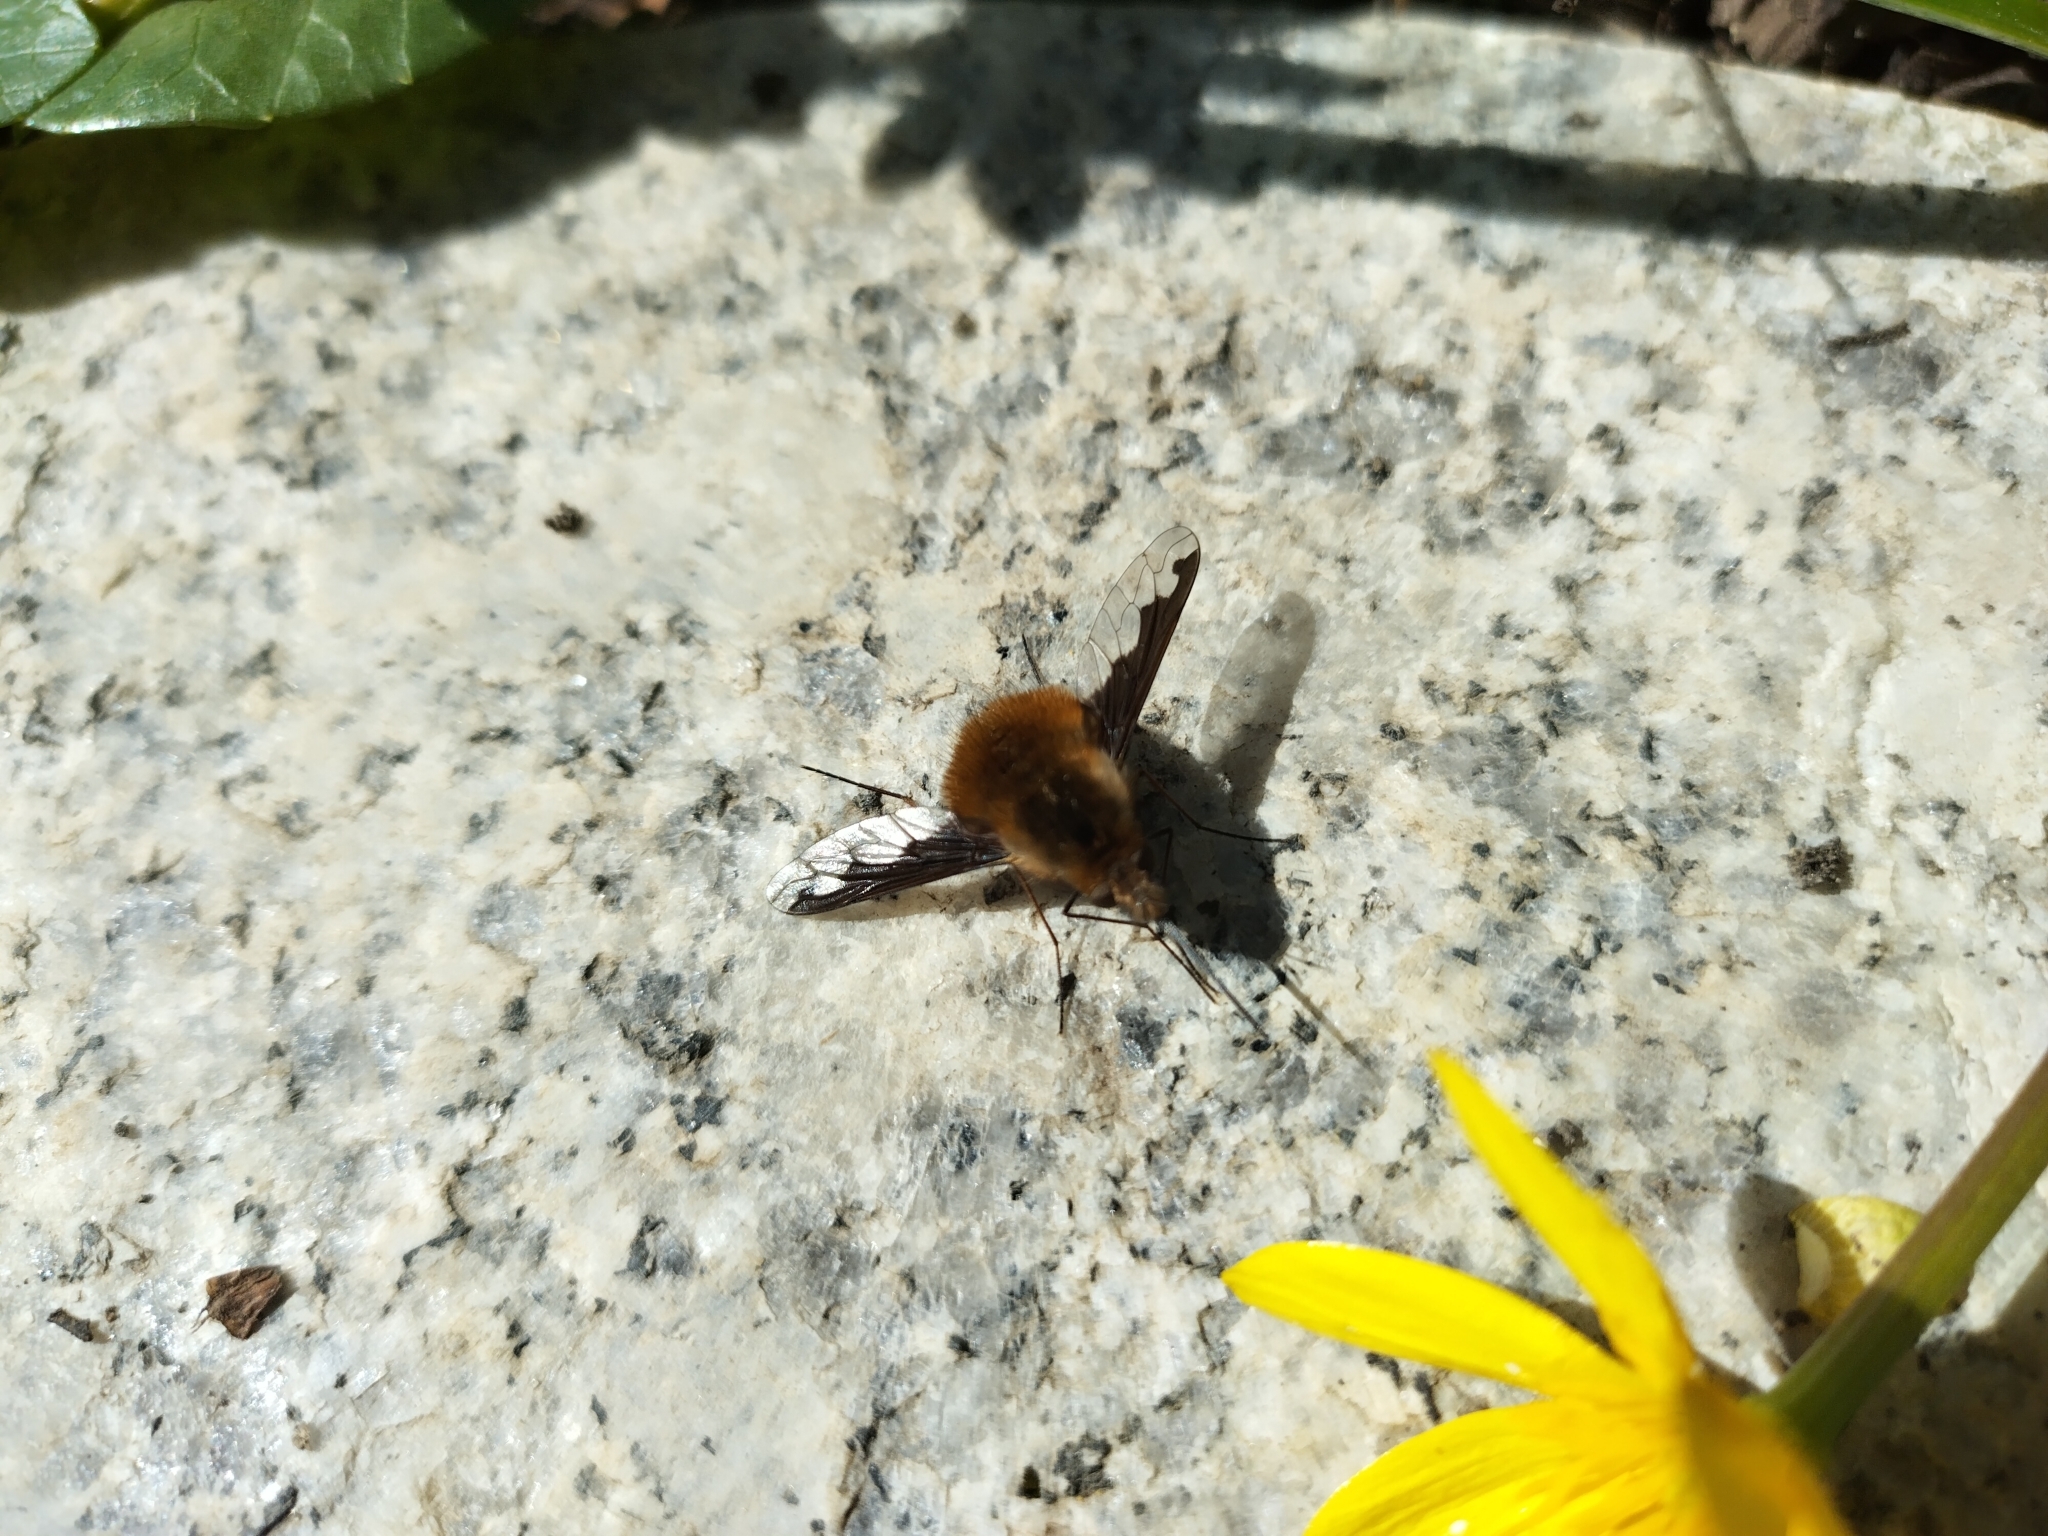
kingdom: Animalia
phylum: Arthropoda
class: Insecta
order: Diptera
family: Bombyliidae
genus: Bombylius
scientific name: Bombylius major
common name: Bee fly
